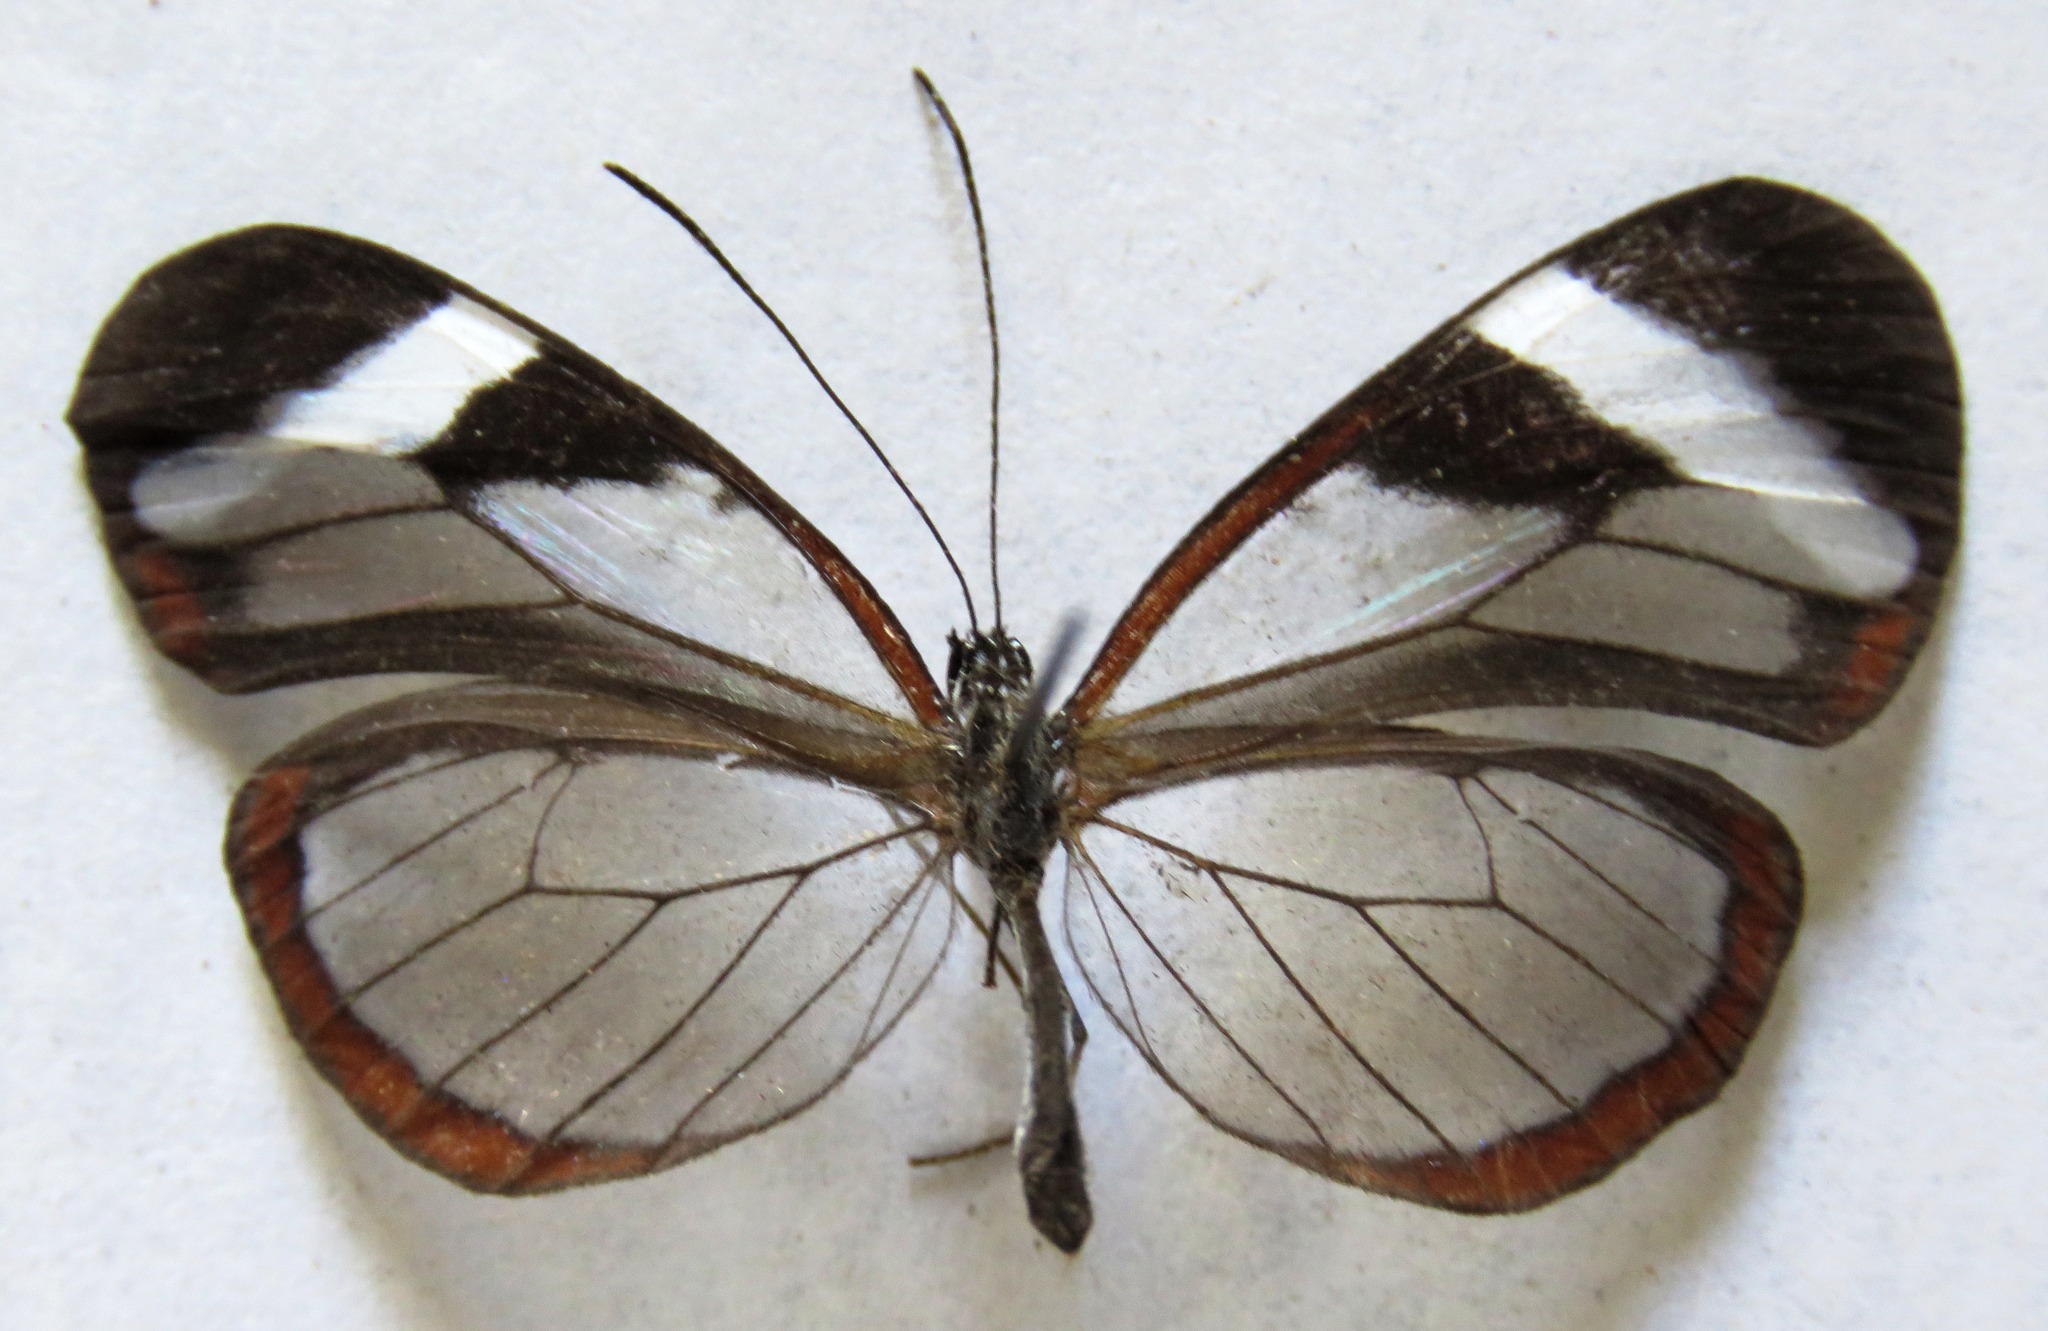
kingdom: Animalia
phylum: Arthropoda
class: Insecta
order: Lepidoptera
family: Nymphalidae
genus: Oleria
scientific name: Oleria paula
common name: Paula's clearwing
